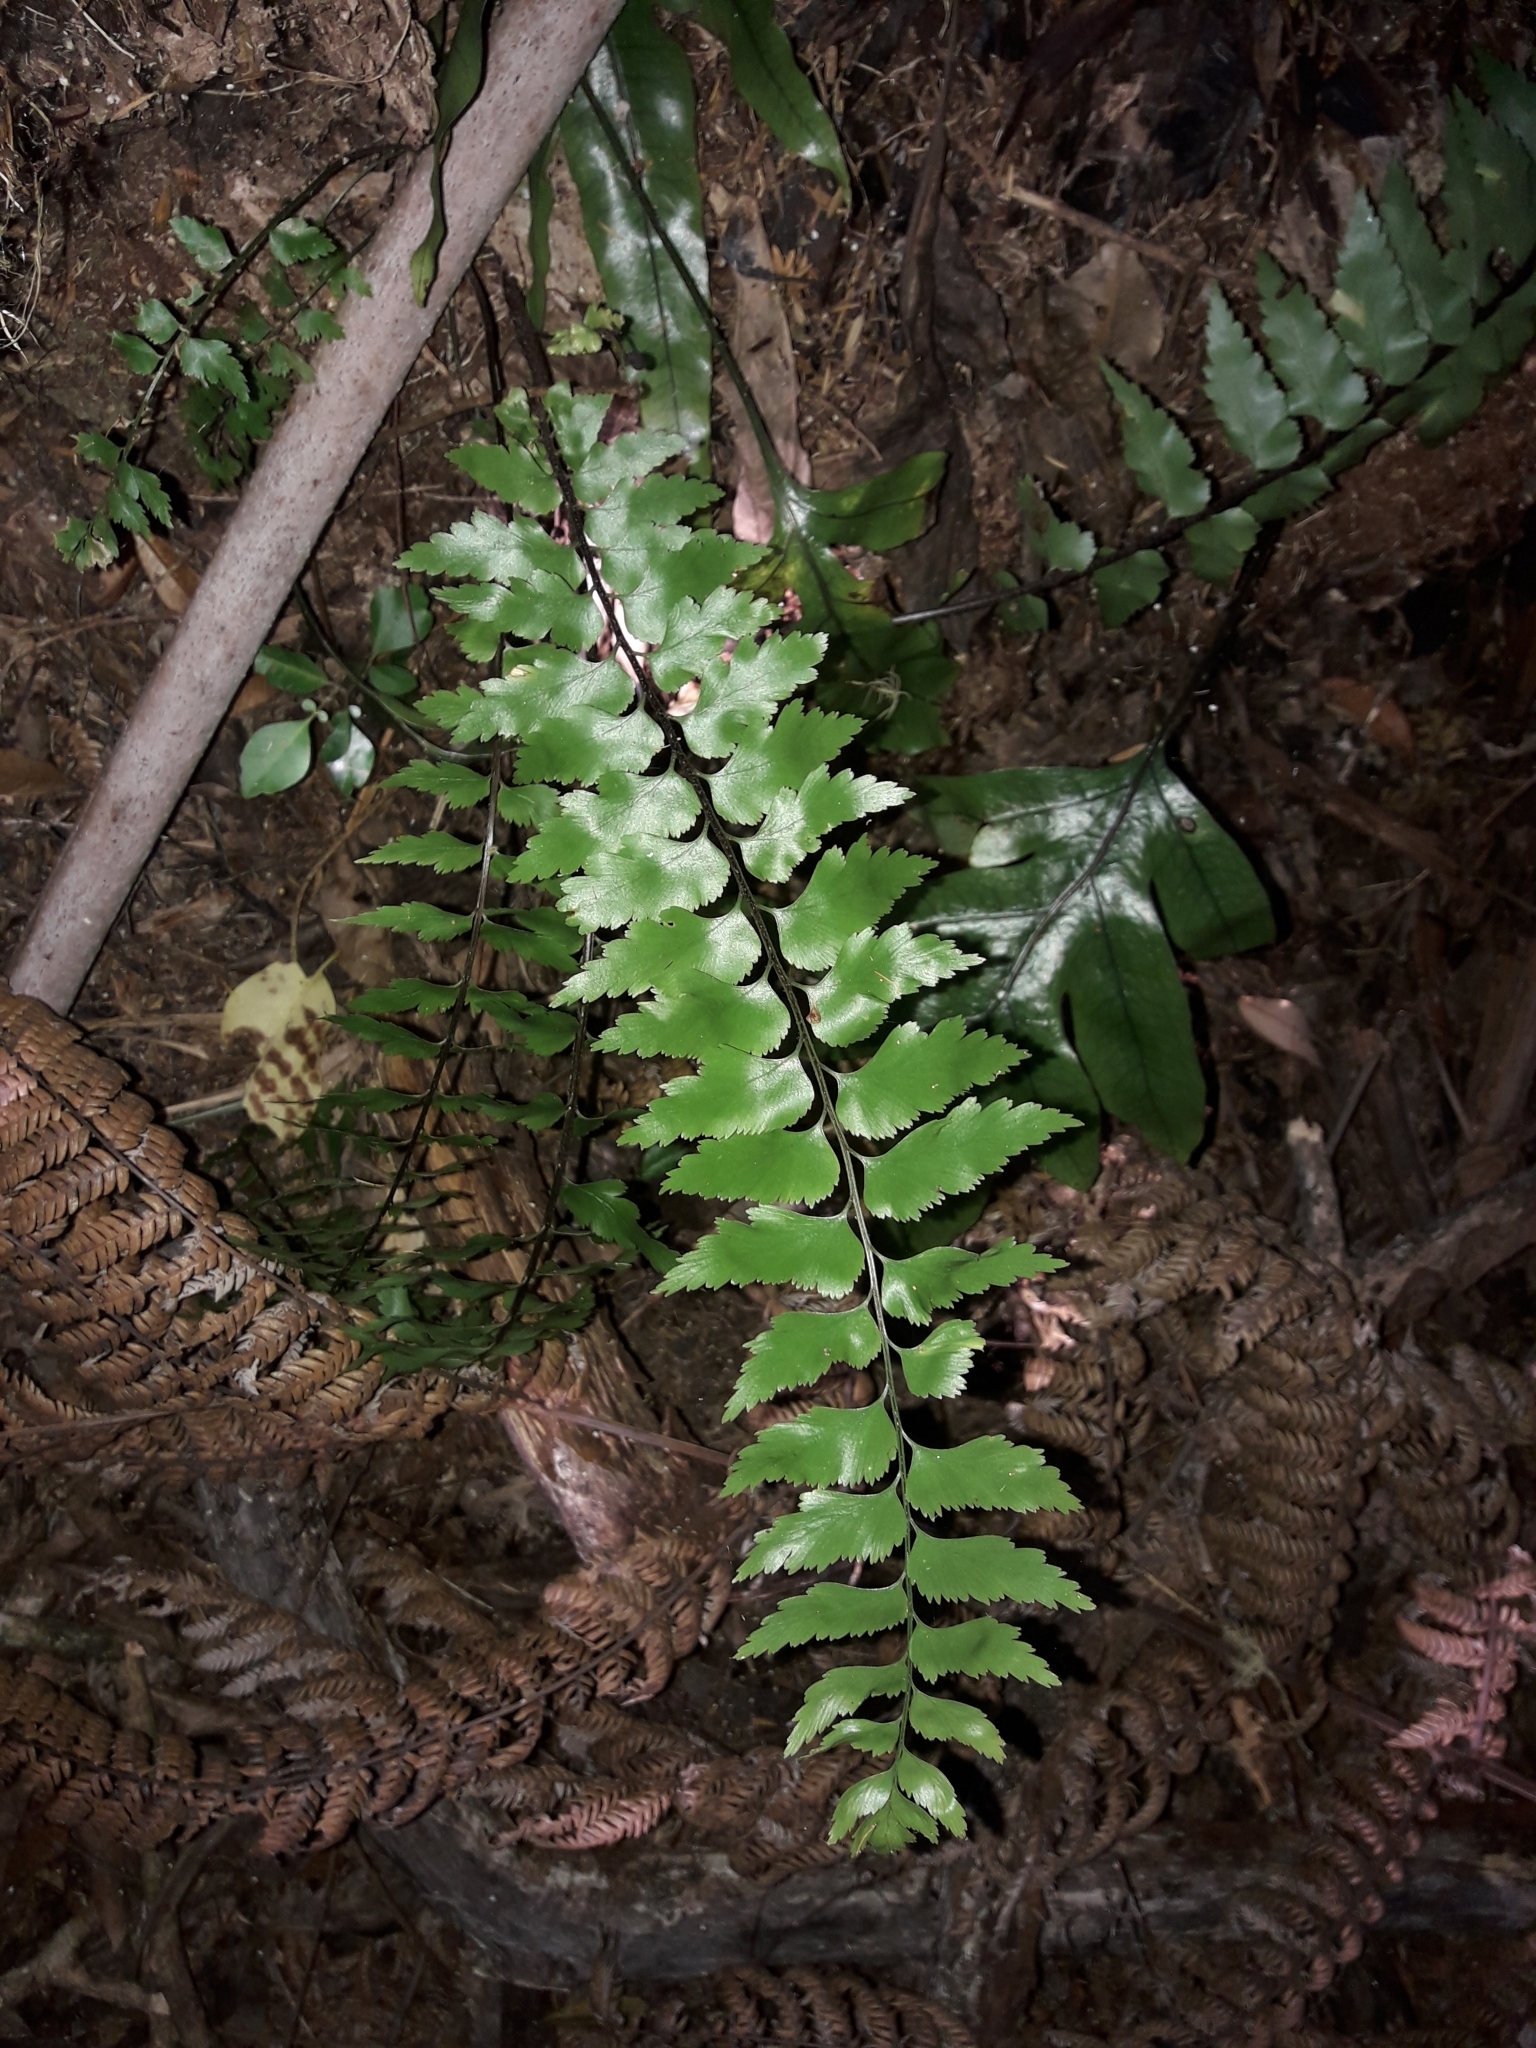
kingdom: Plantae
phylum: Tracheophyta
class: Polypodiopsida
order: Polypodiales
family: Aspleniaceae
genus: Asplenium
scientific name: Asplenium polyodon
